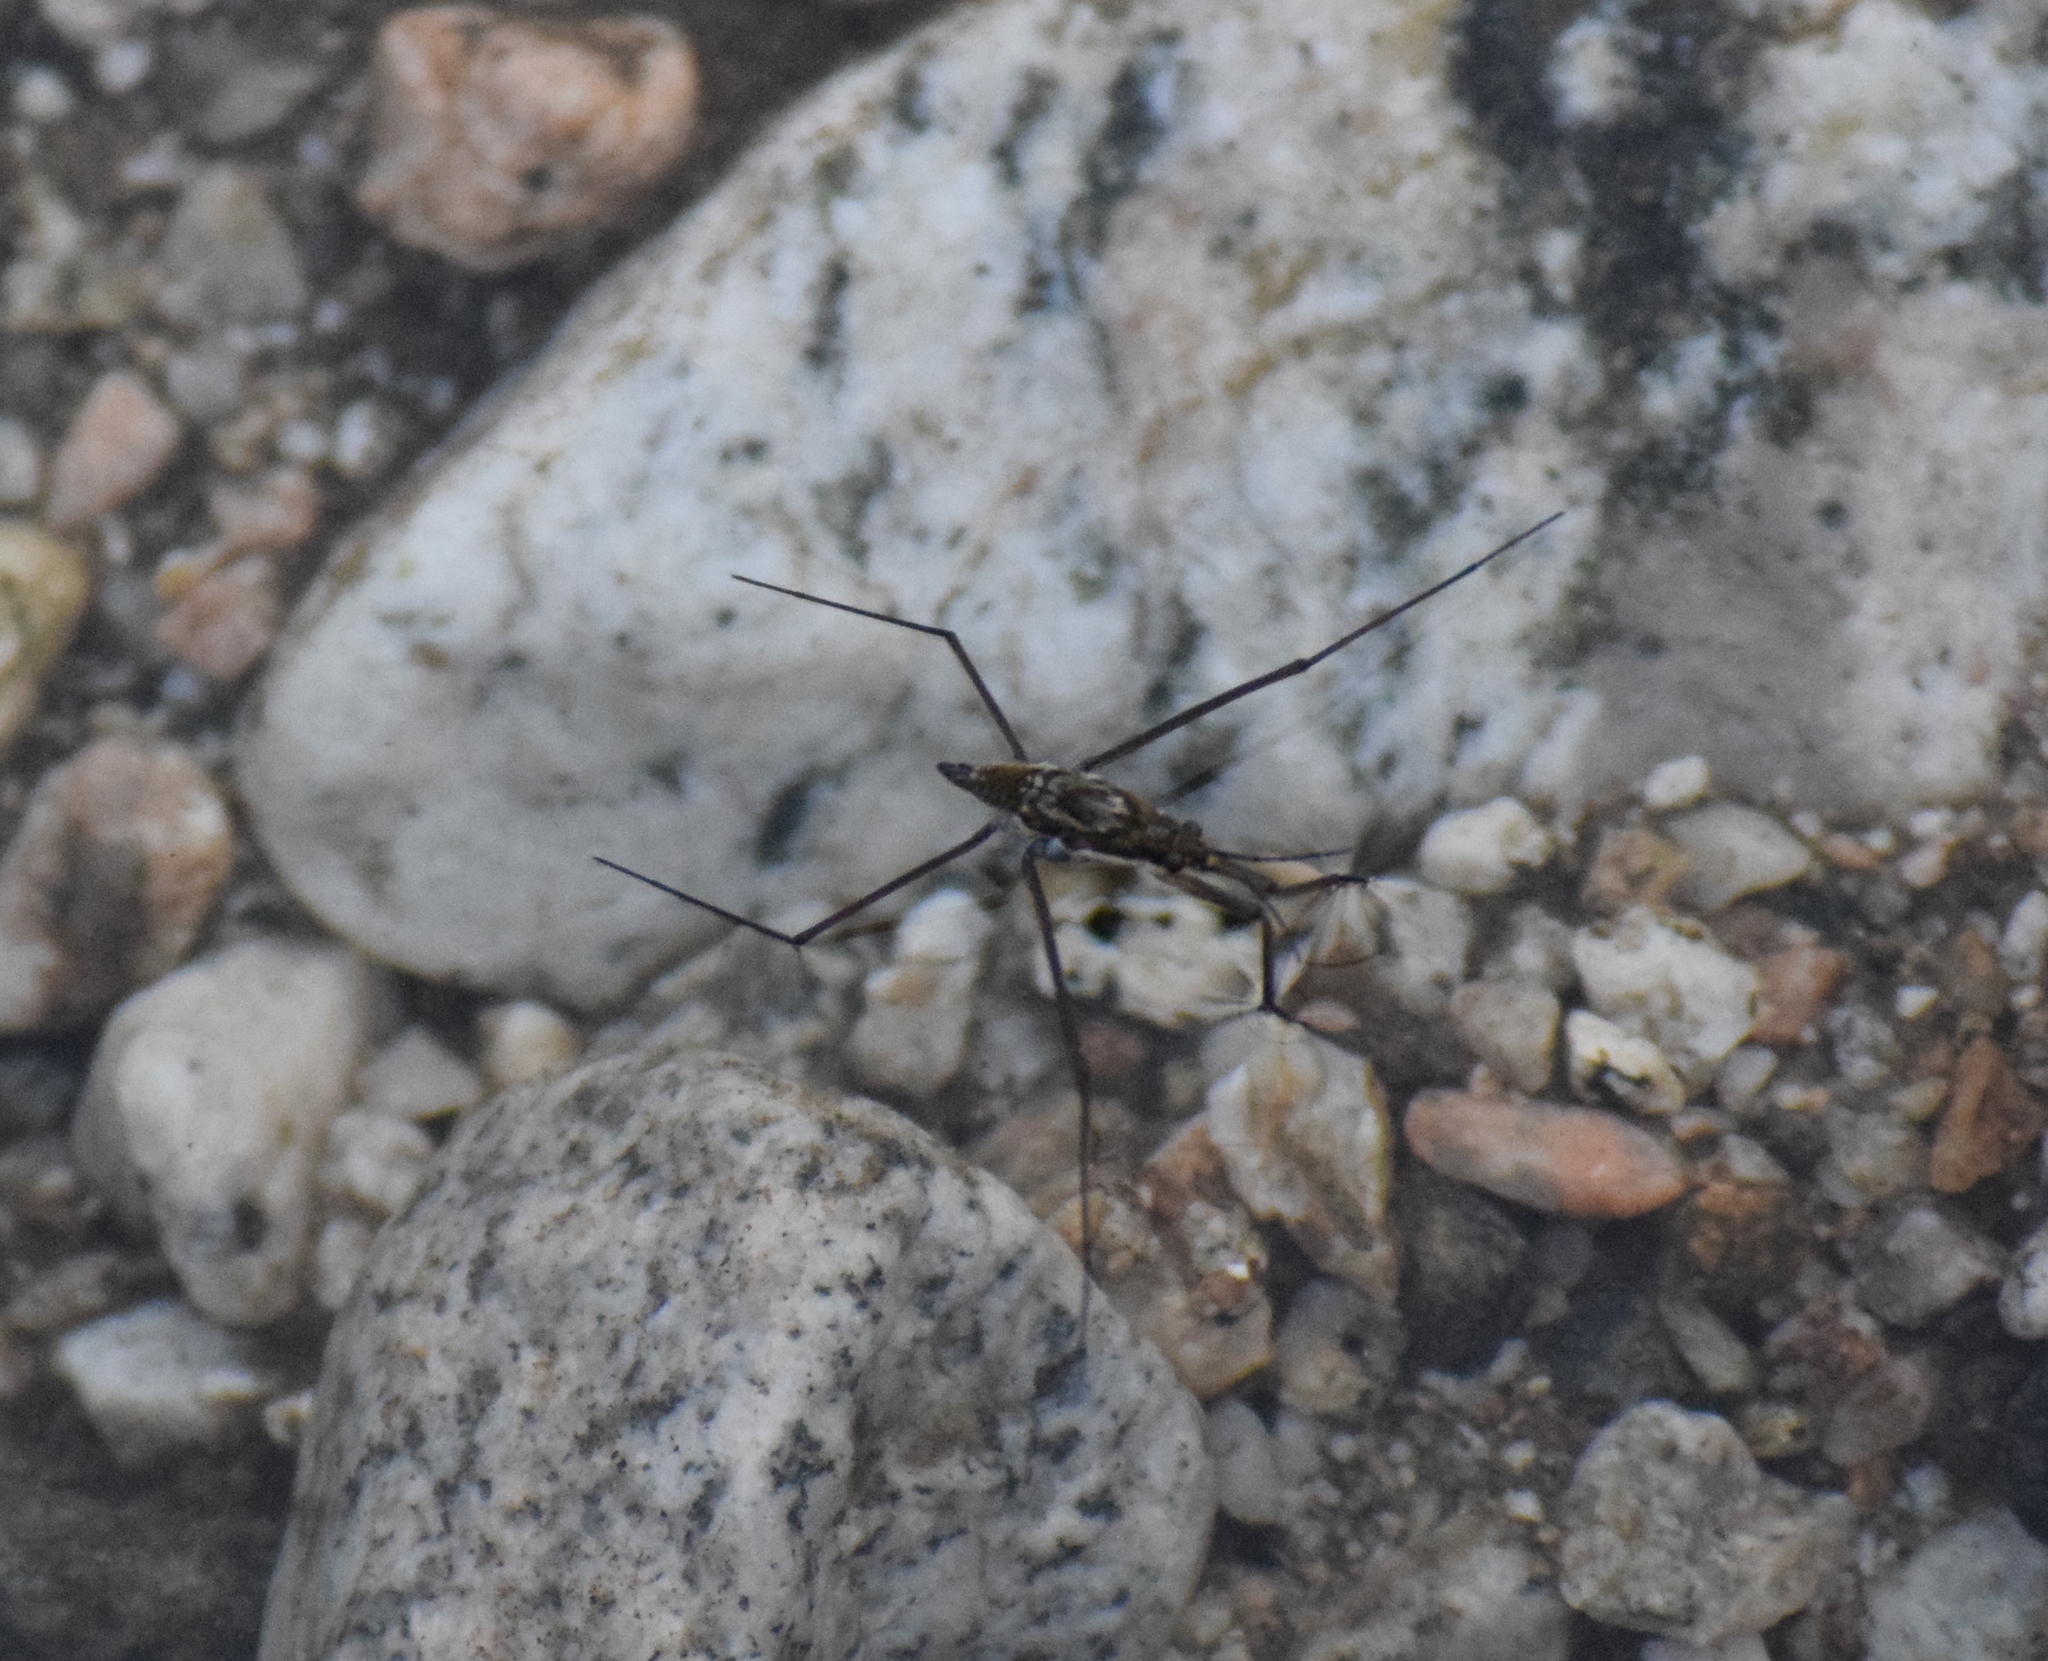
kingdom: Animalia
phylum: Arthropoda
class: Insecta
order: Hemiptera
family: Gerridae
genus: Aquarius
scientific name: Aquarius remigis
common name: Common water strider
